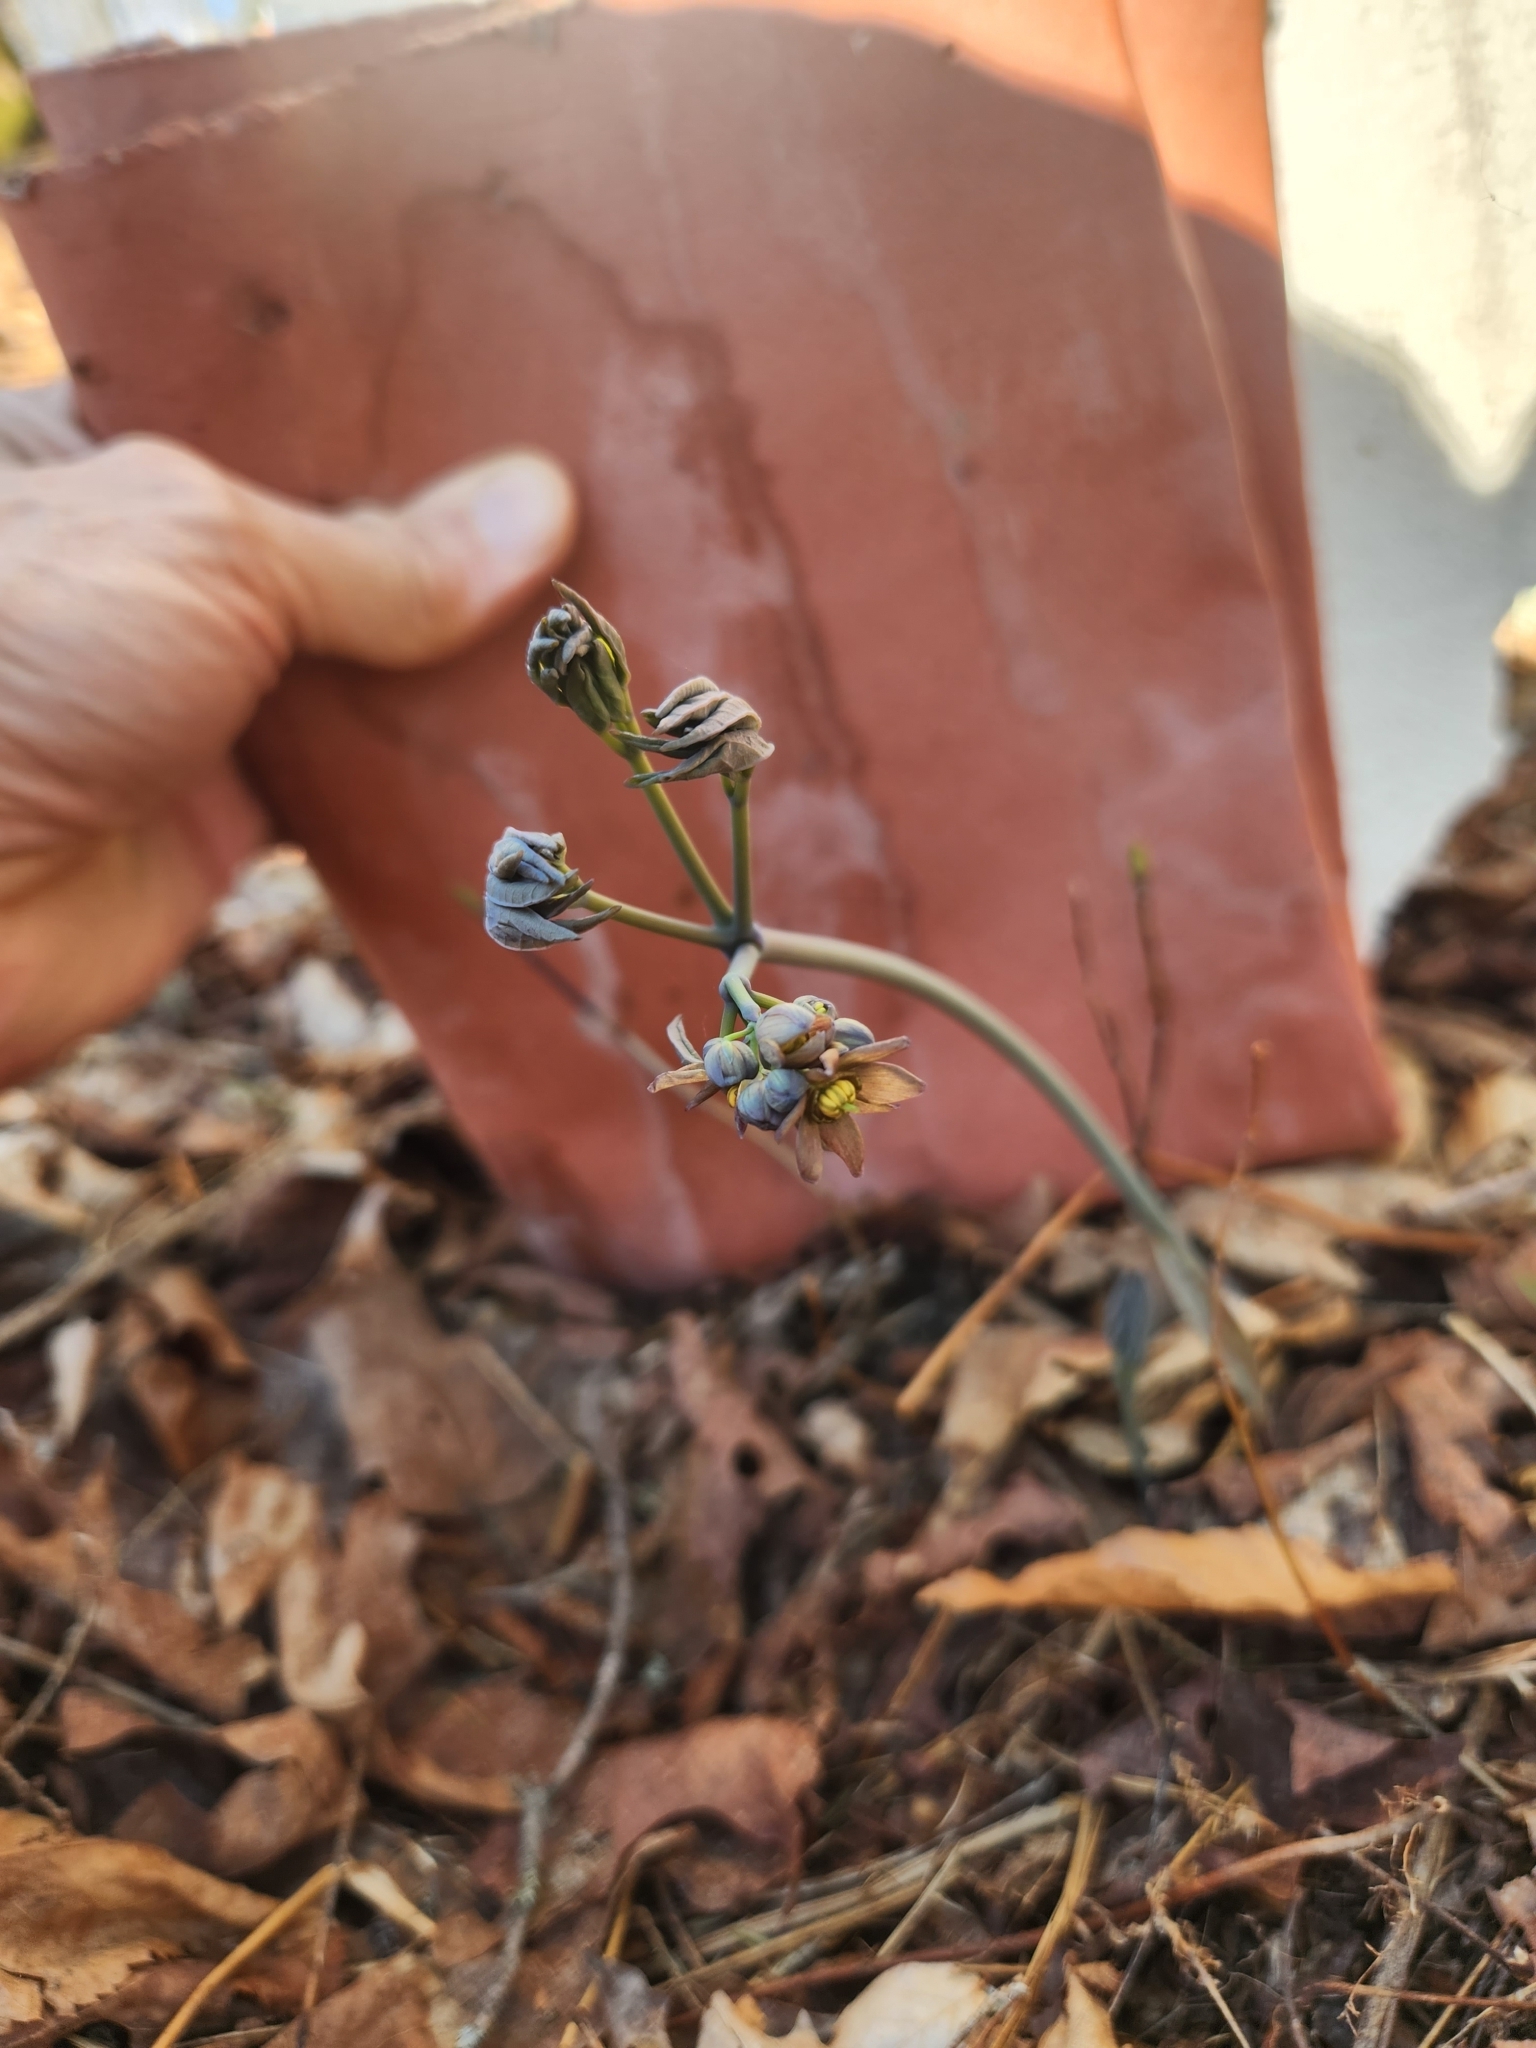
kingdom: Plantae
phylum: Tracheophyta
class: Magnoliopsida
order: Ranunculales
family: Berberidaceae
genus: Caulophyllum
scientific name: Caulophyllum giganteum
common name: Blue cohosh
